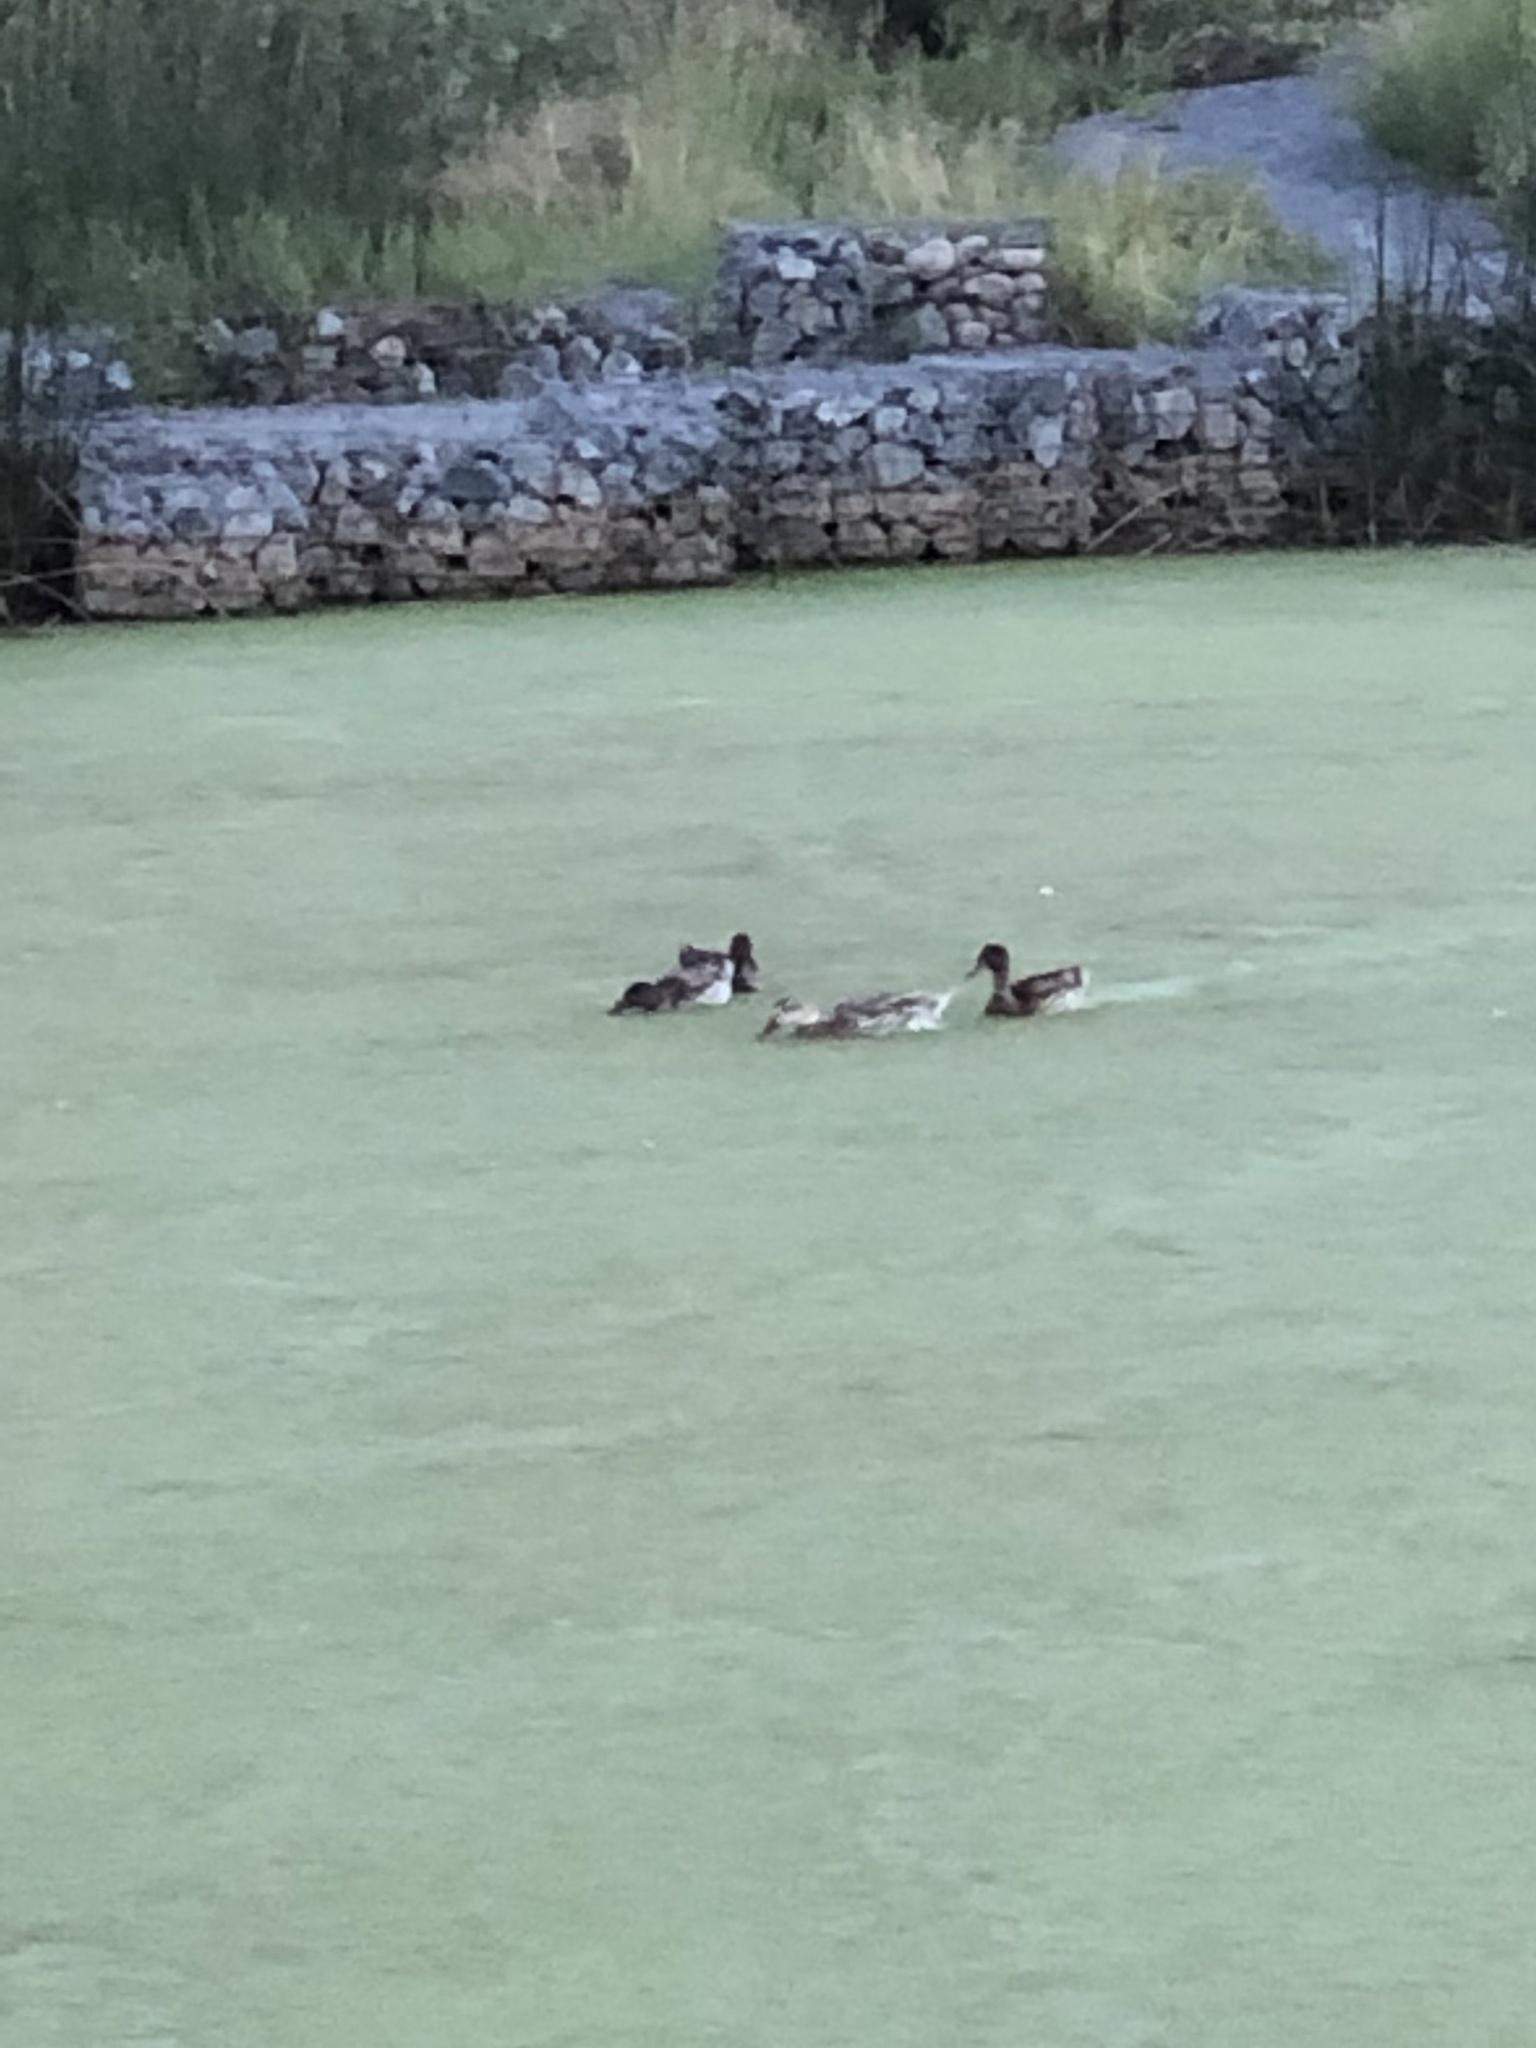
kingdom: Animalia
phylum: Chordata
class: Aves
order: Anseriformes
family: Anatidae
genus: Anas
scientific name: Anas platyrhynchos
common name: Mallard
